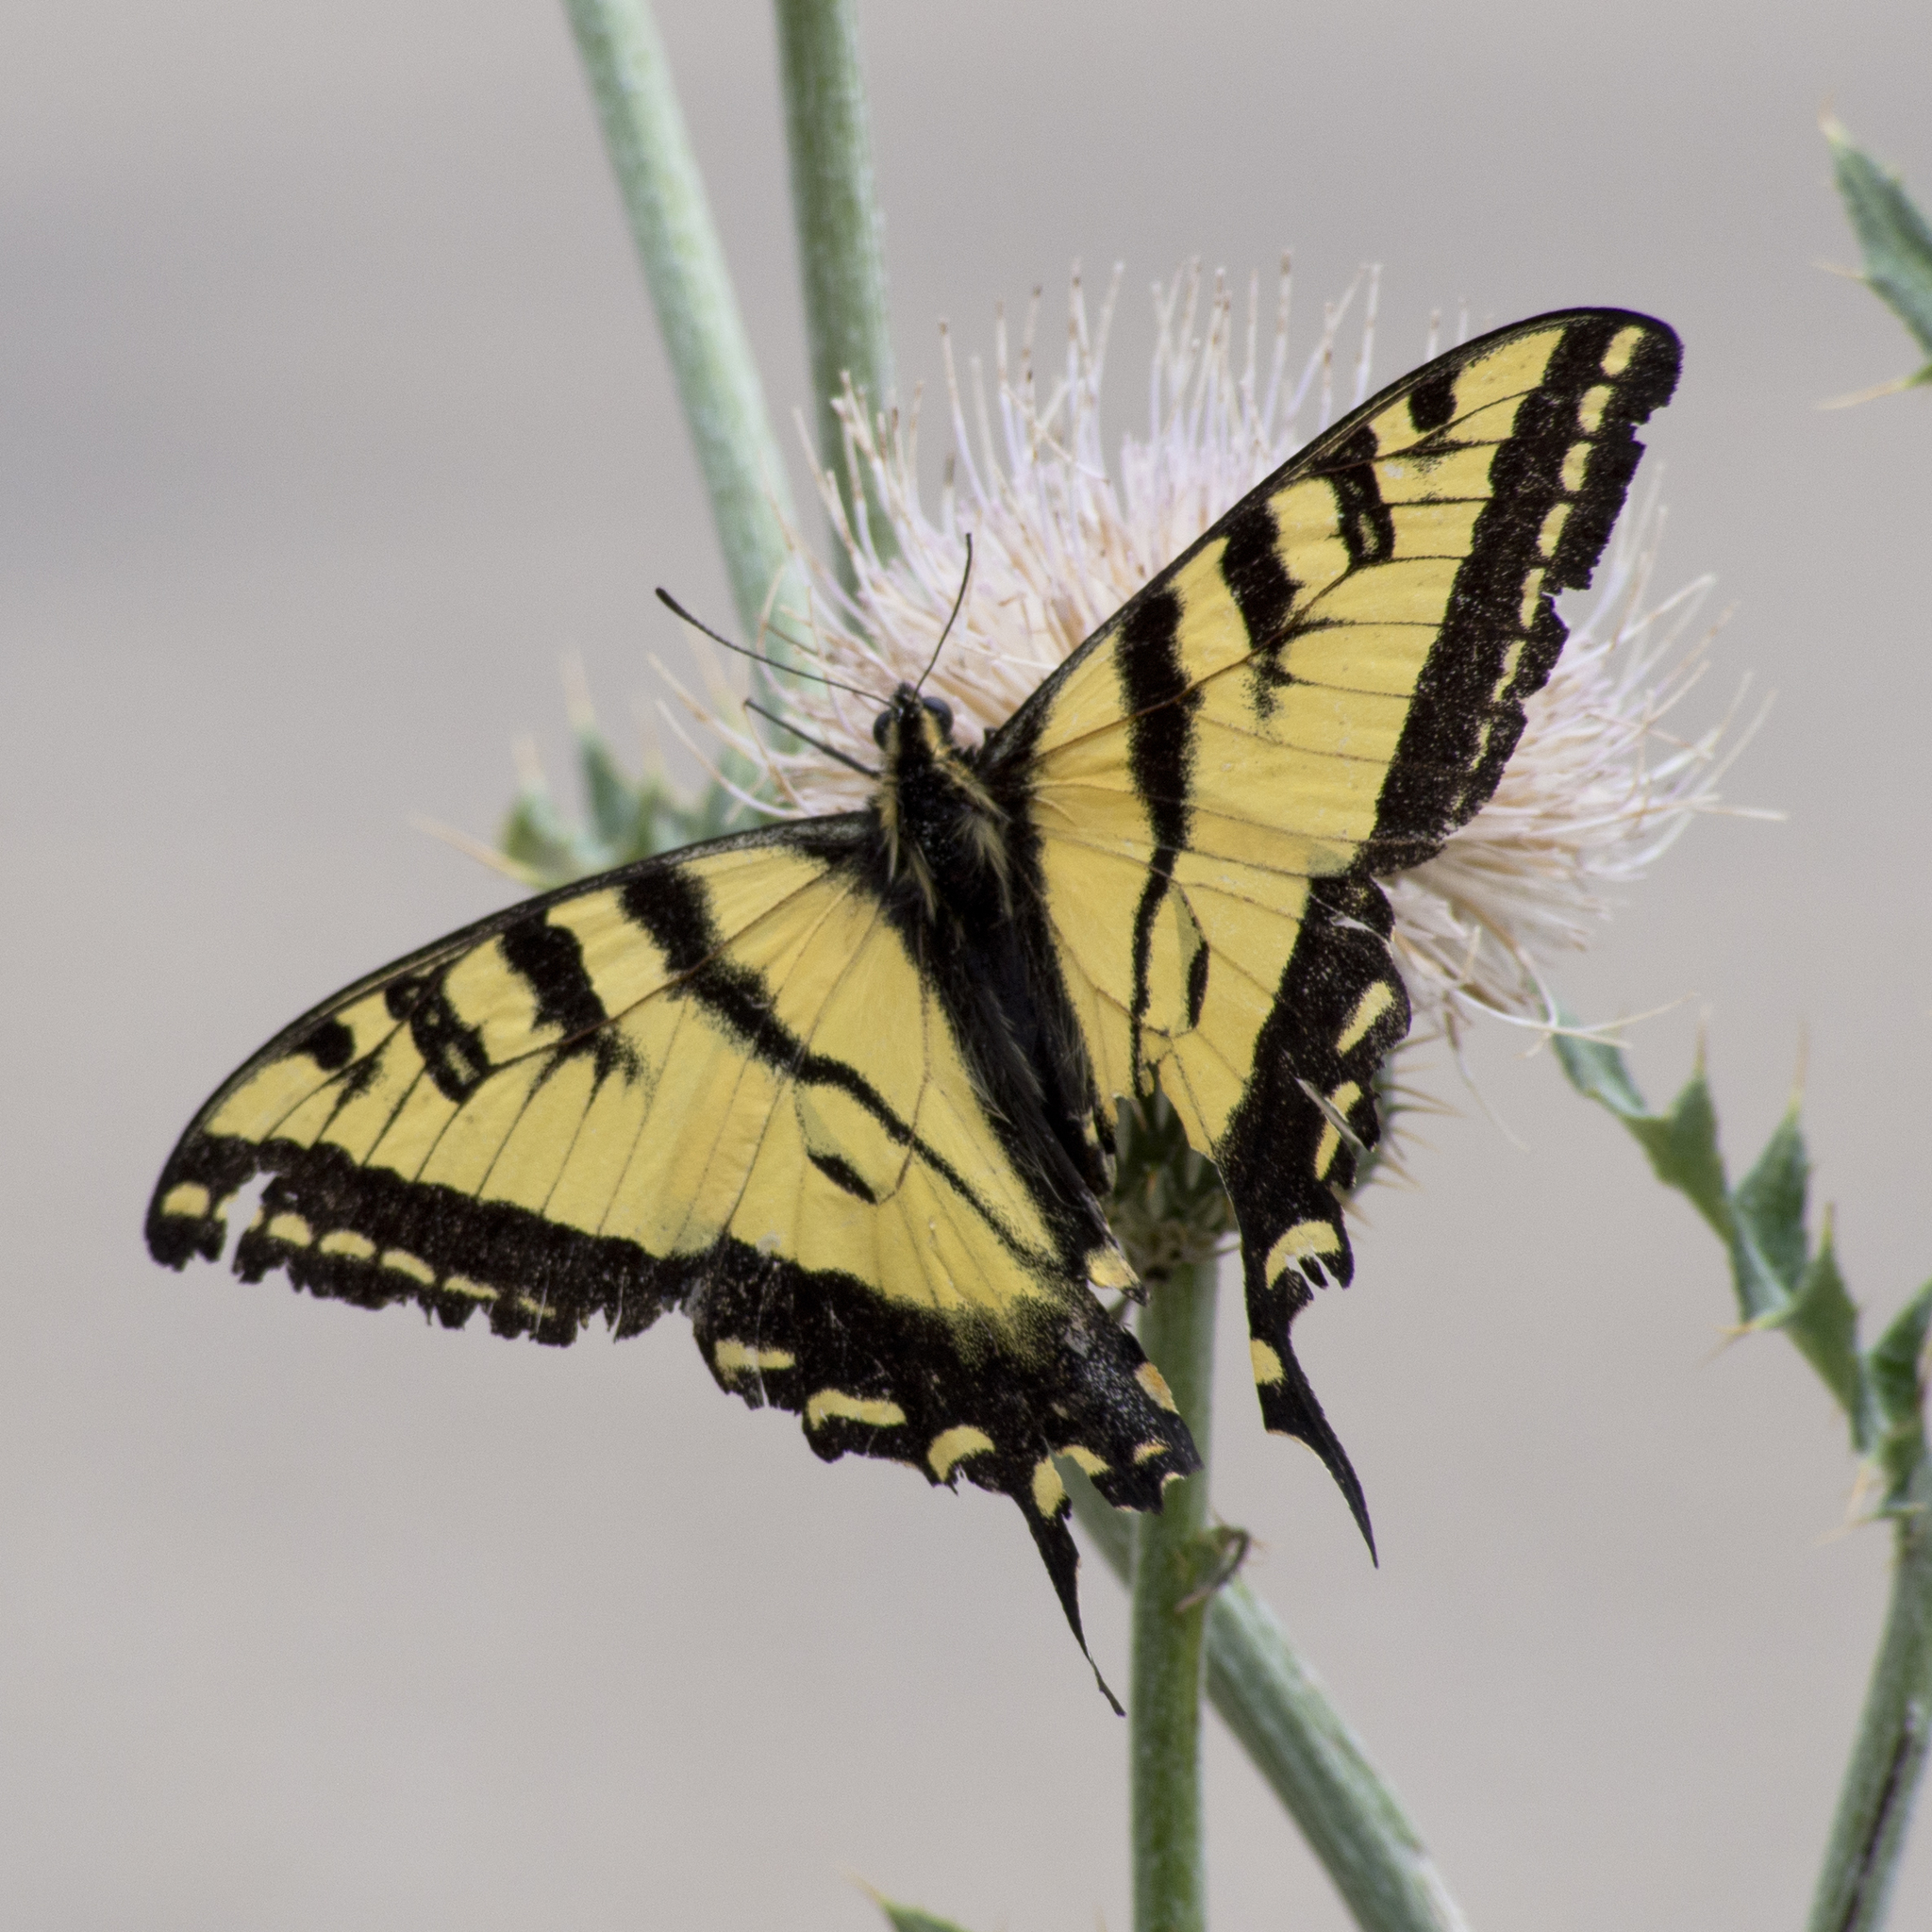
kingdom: Animalia
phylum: Arthropoda
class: Insecta
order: Lepidoptera
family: Papilionidae
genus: Papilio
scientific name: Papilio rutulus
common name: Western tiger swallowtail
